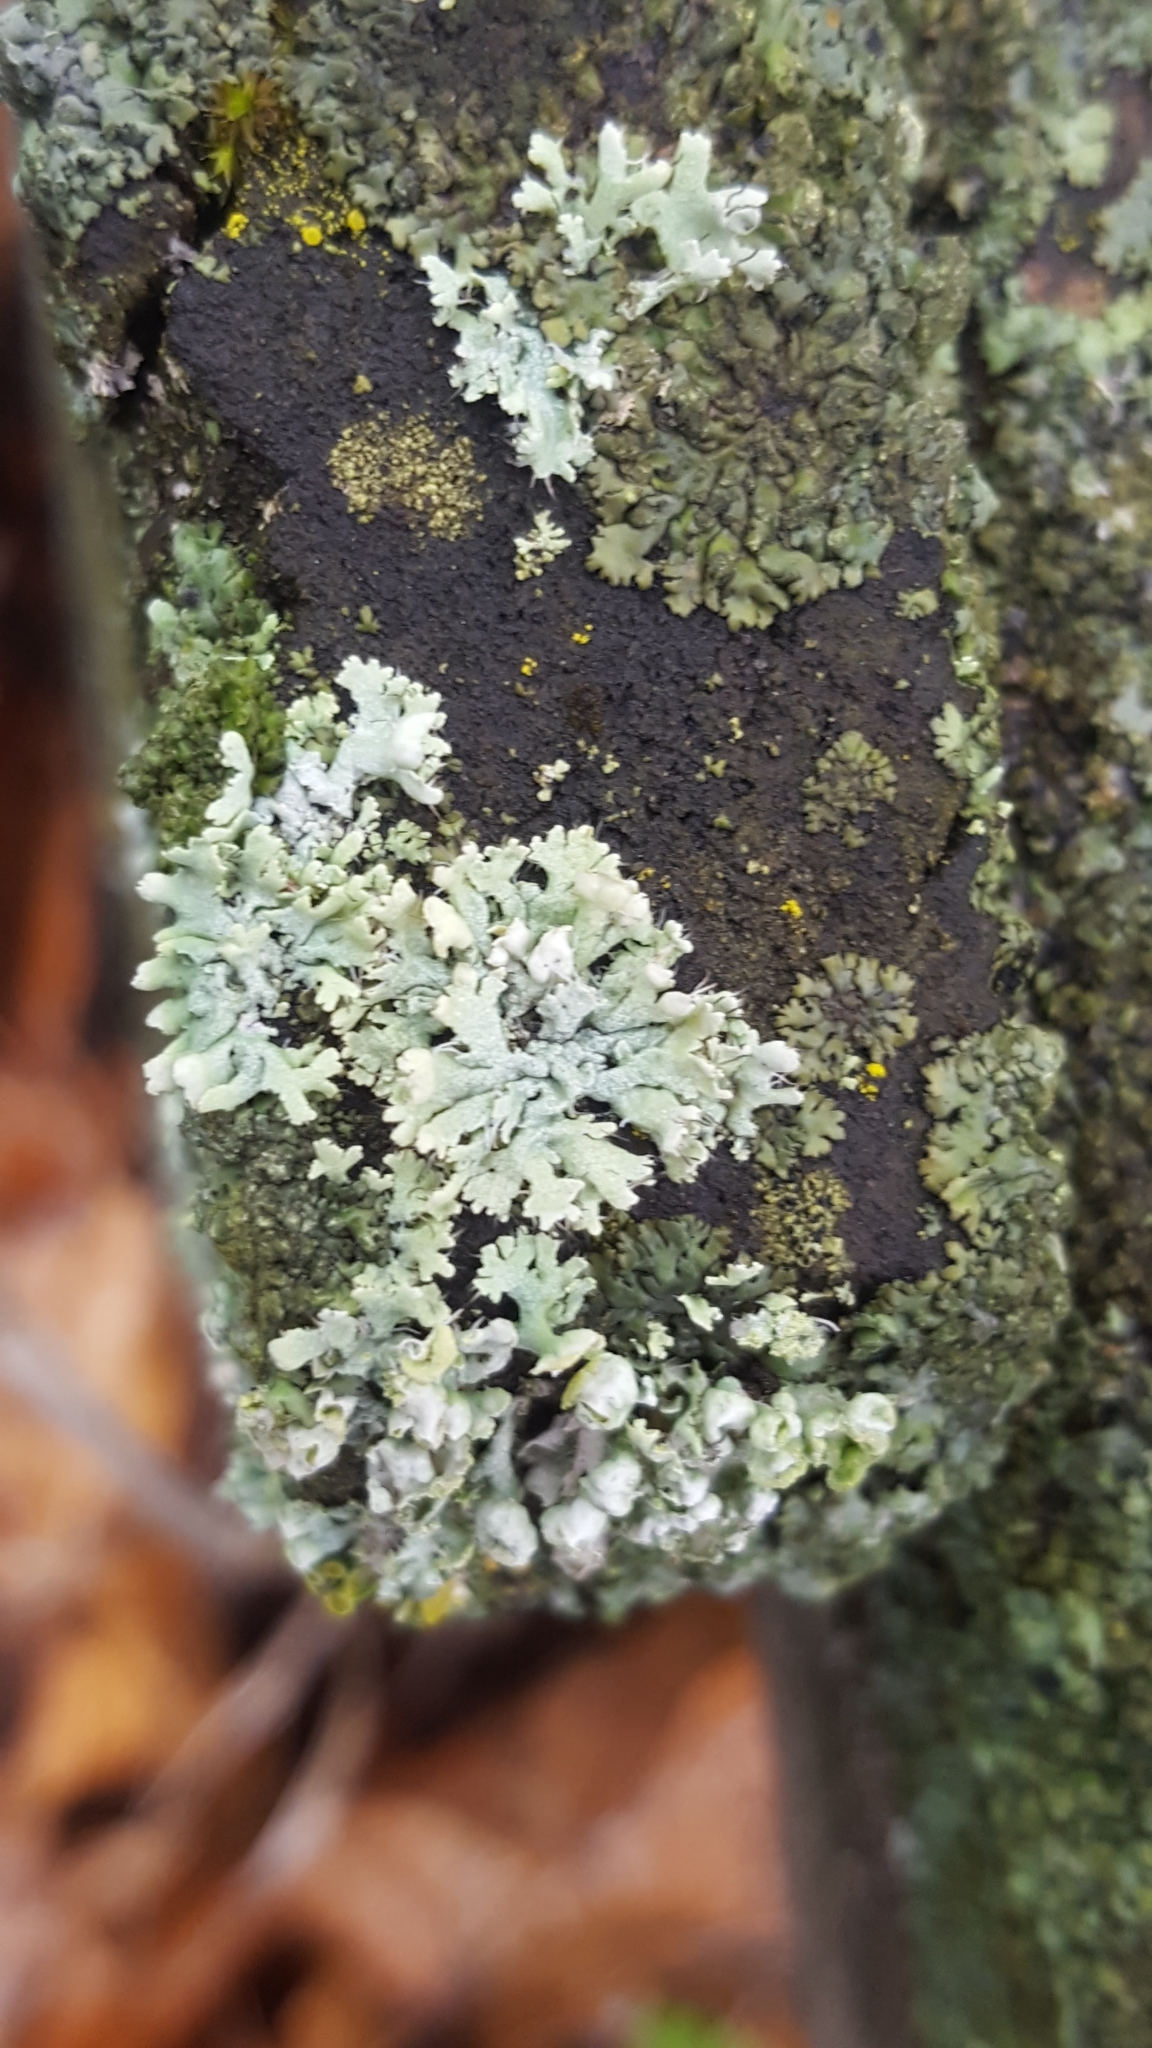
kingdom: Fungi
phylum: Ascomycota
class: Lecanoromycetes
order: Caliciales
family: Physciaceae
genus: Physcia
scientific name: Physcia adscendens
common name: Hooded rosette lichen
